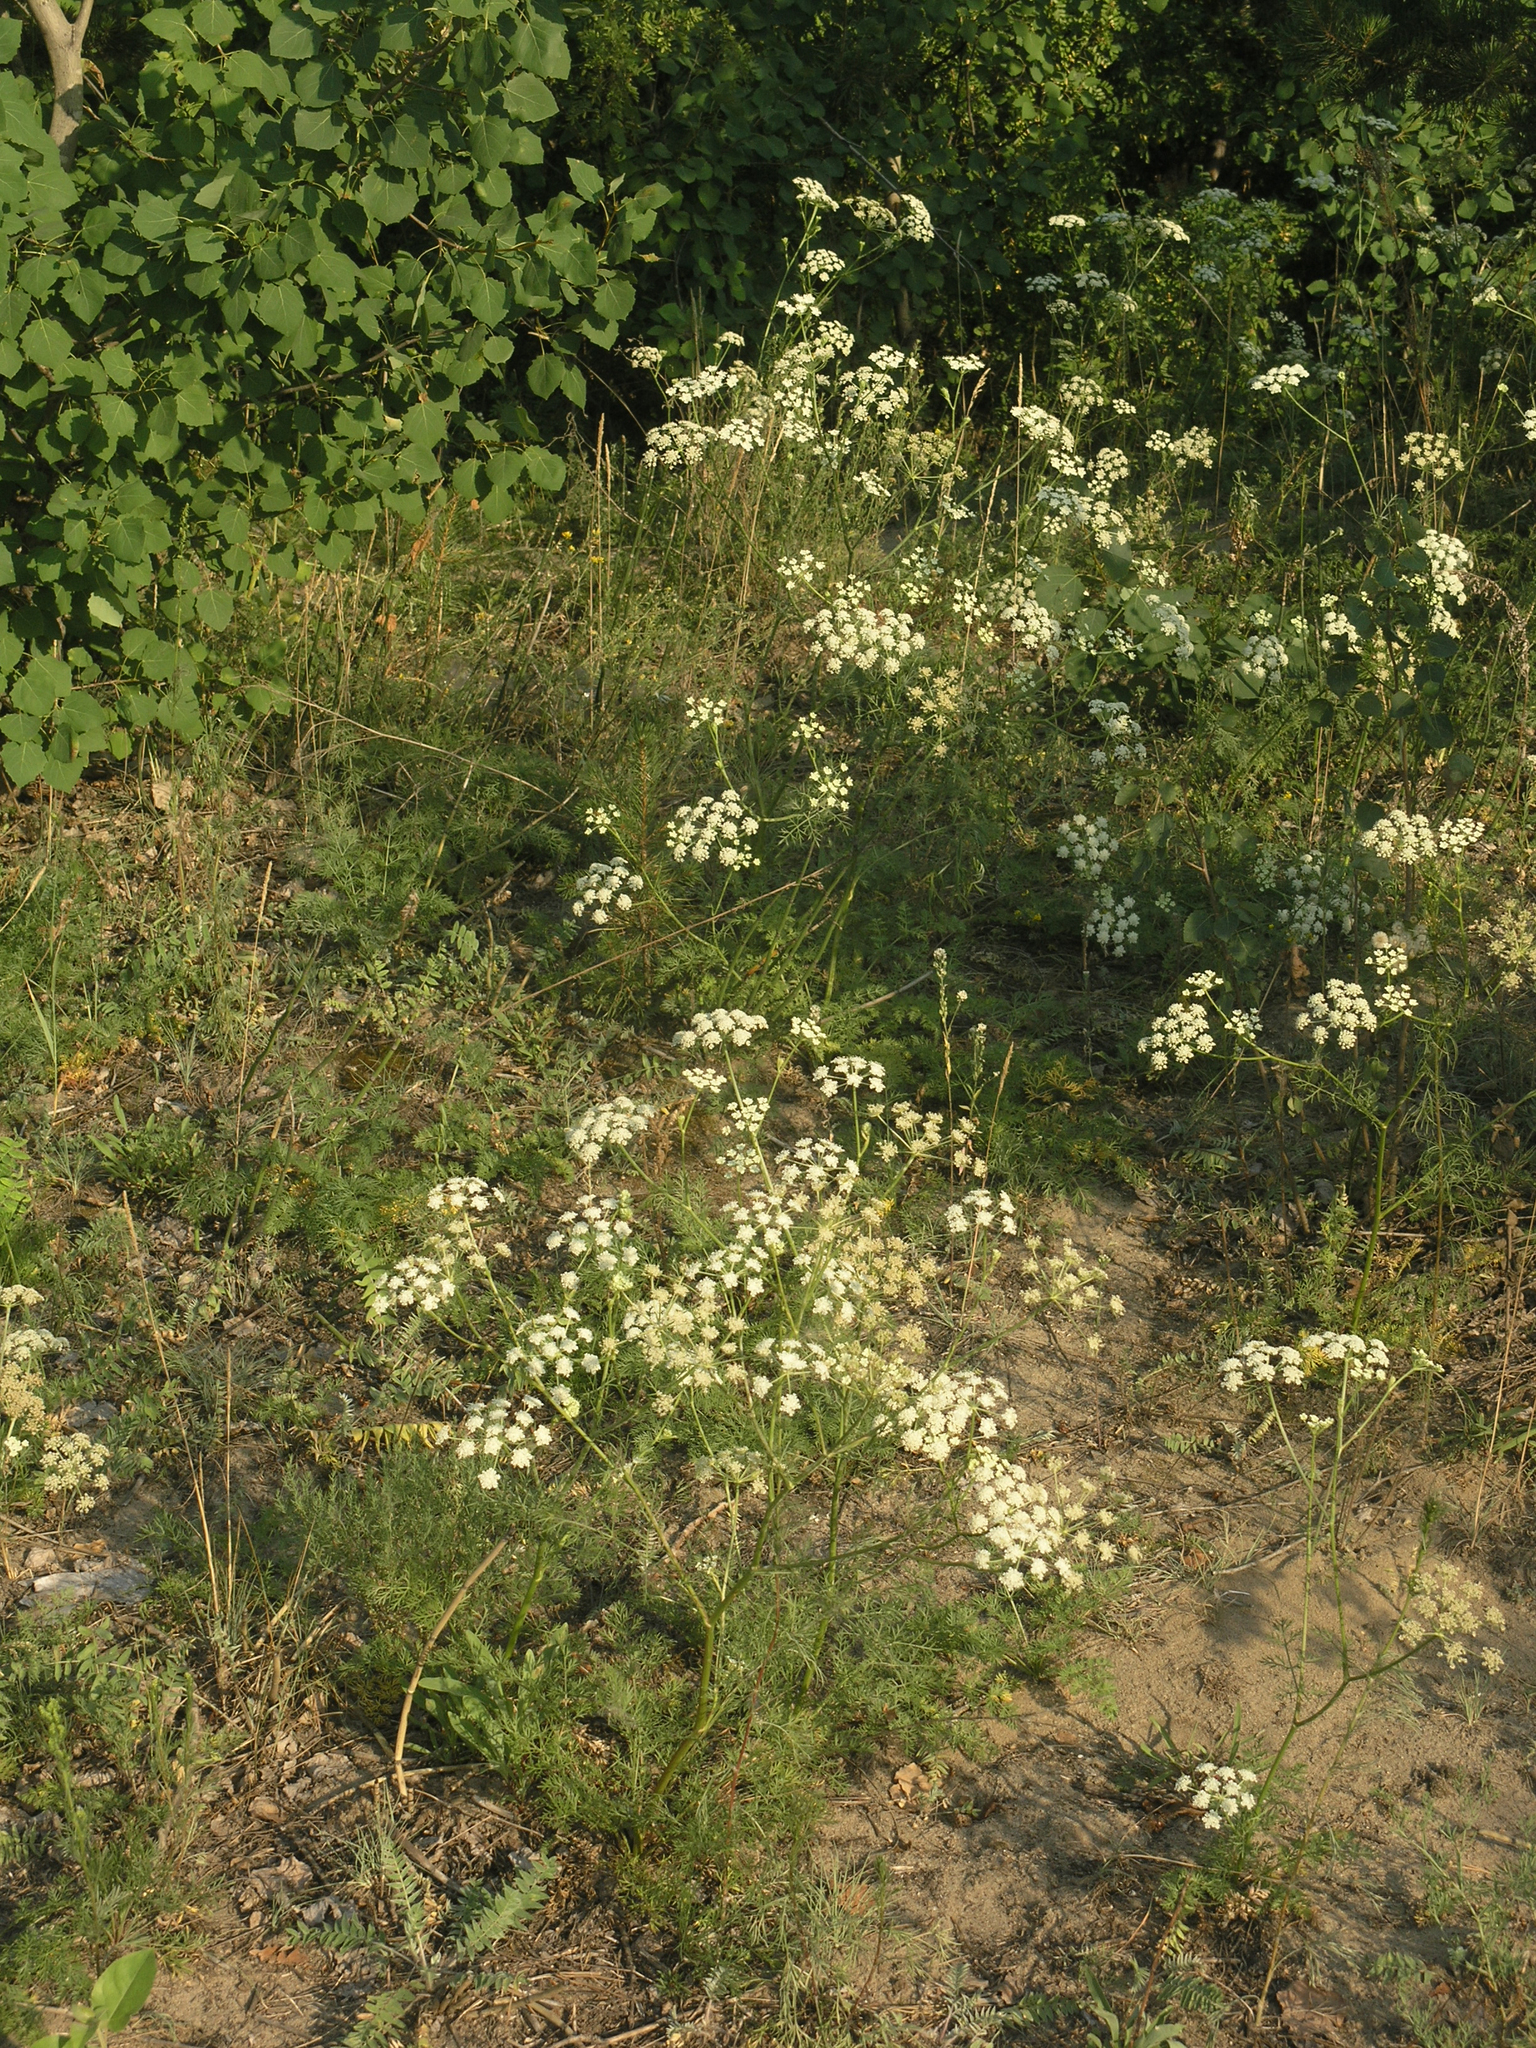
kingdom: Plantae
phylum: Tracheophyta
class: Magnoliopsida
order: Apiales
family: Apiaceae
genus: Kitagawia
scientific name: Kitagawia baicalensis
